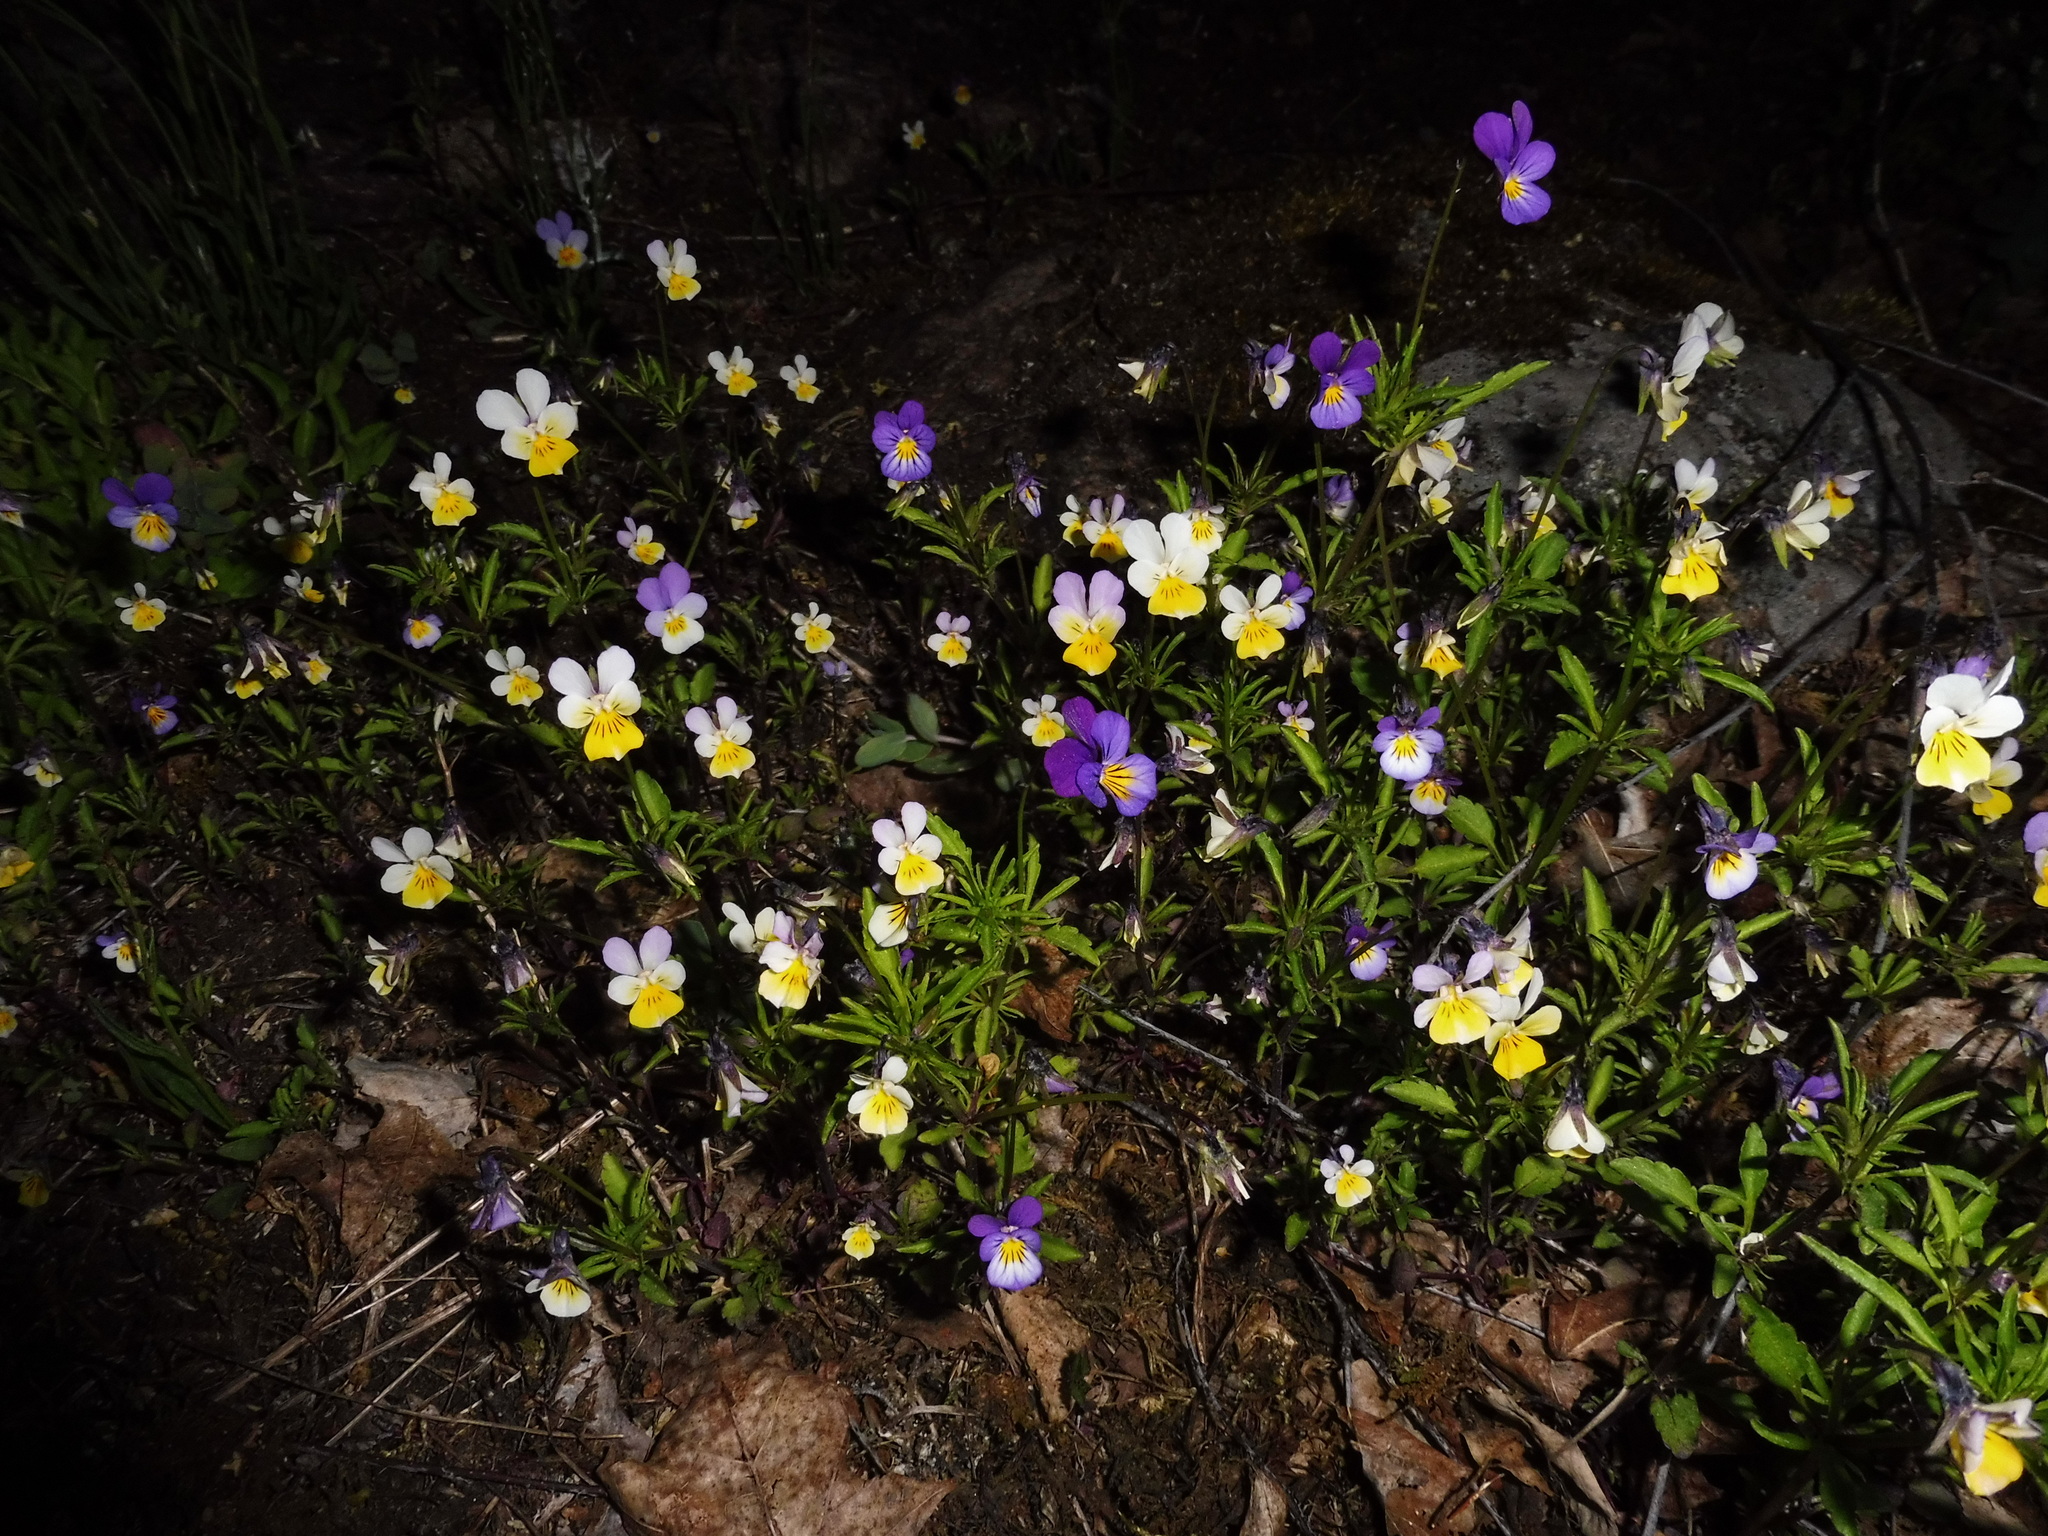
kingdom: Plantae
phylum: Tracheophyta
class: Magnoliopsida
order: Malpighiales
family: Violaceae
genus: Viola
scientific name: Viola tricolor
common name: Pansy
